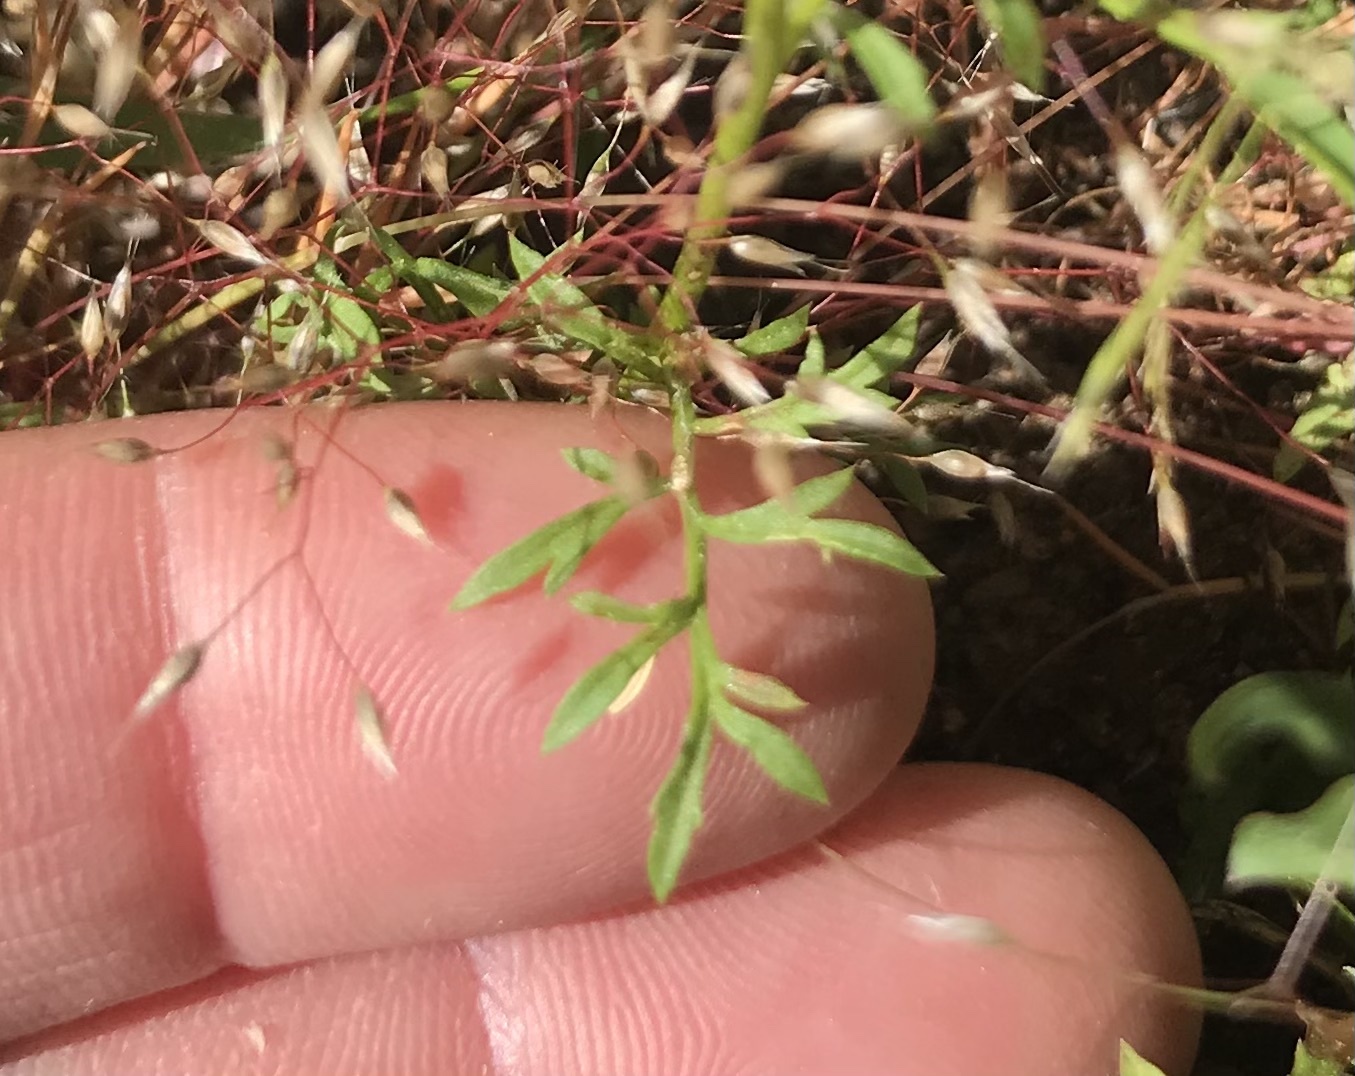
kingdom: Plantae
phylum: Tracheophyta
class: Magnoliopsida
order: Ericales
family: Polemoniaceae
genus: Gilia
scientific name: Gilia capitata
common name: Bluehead gilia
